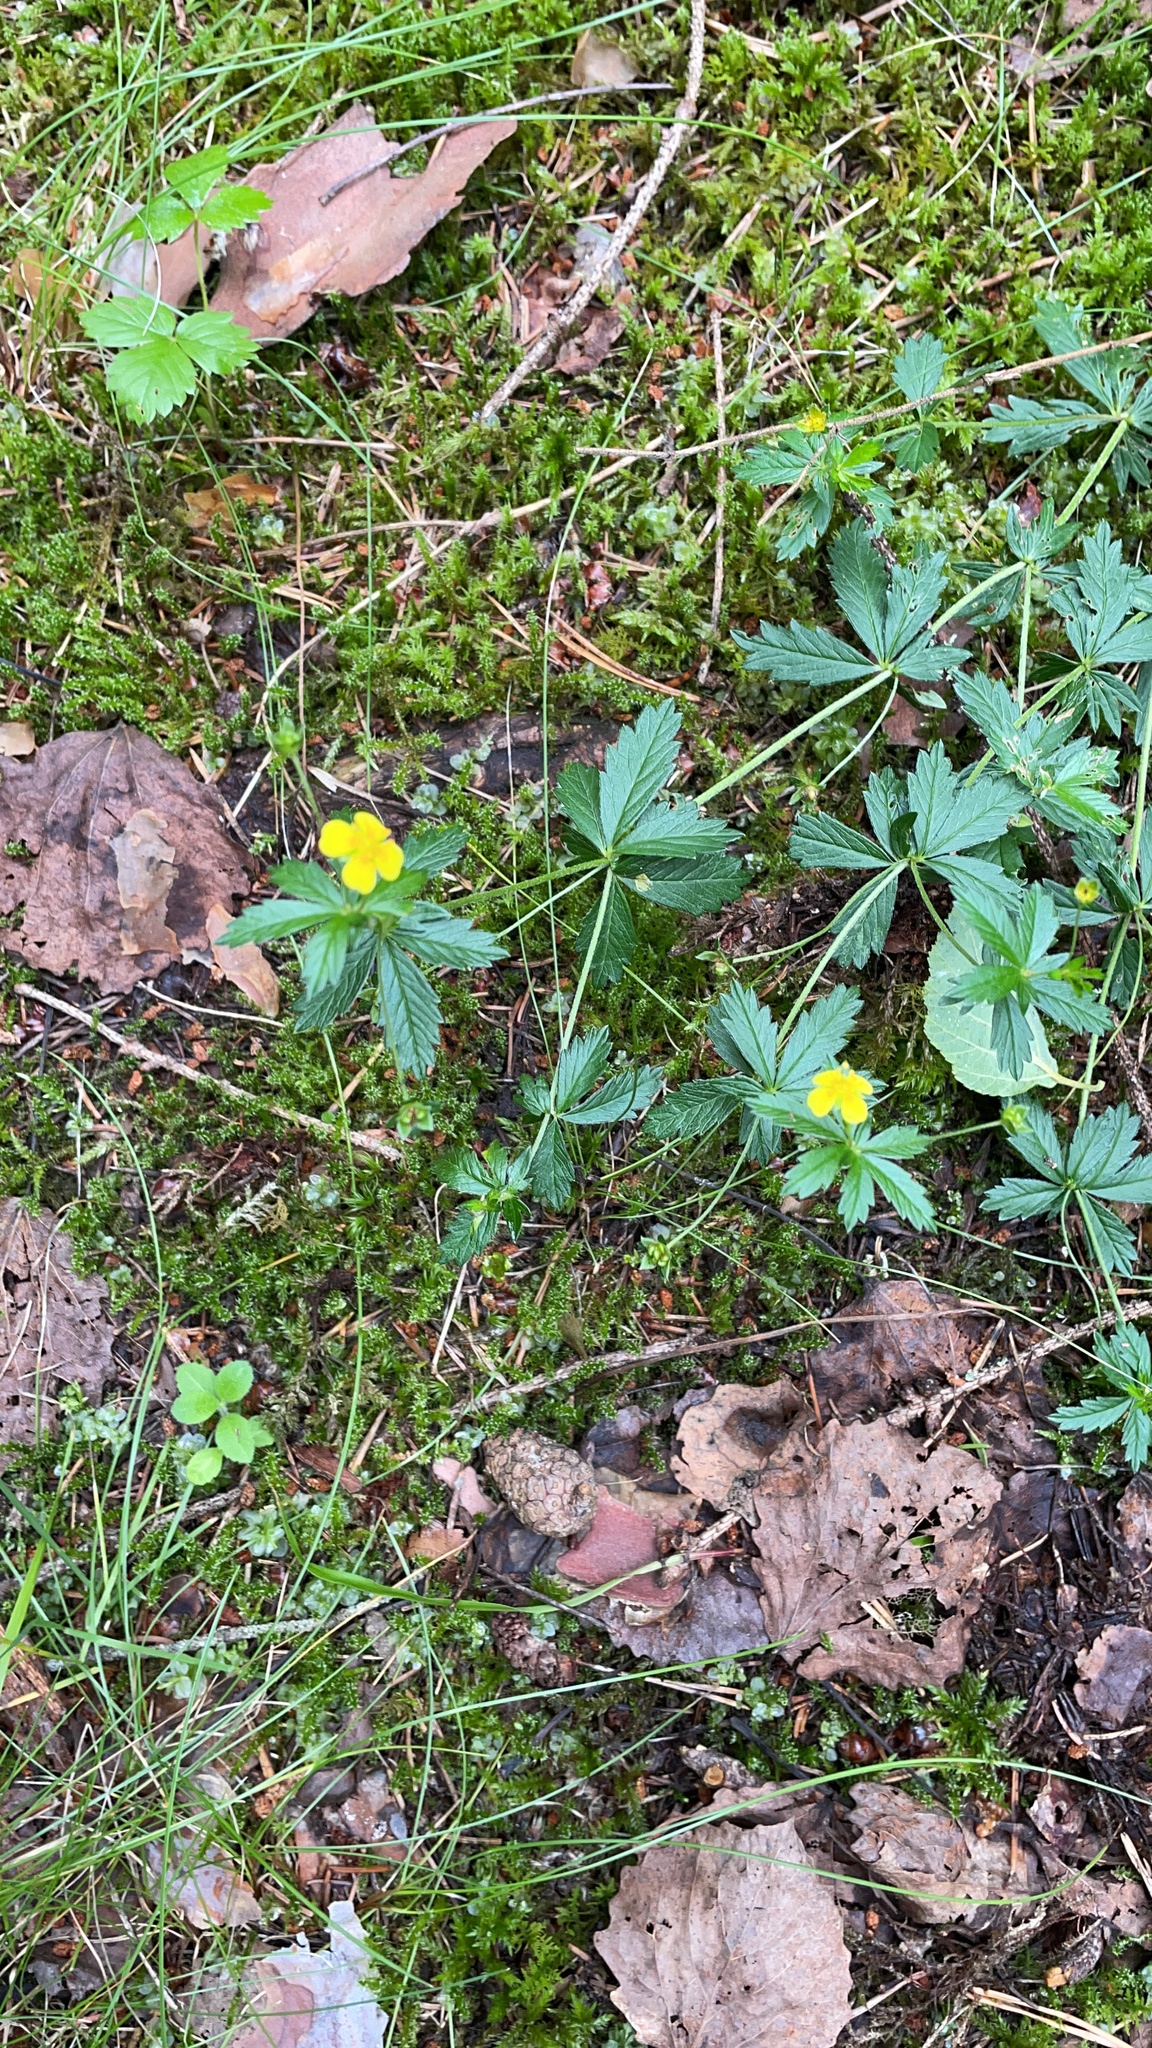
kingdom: Plantae
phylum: Tracheophyta
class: Magnoliopsida
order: Rosales
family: Rosaceae
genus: Potentilla
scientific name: Potentilla erecta
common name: Tormentil
